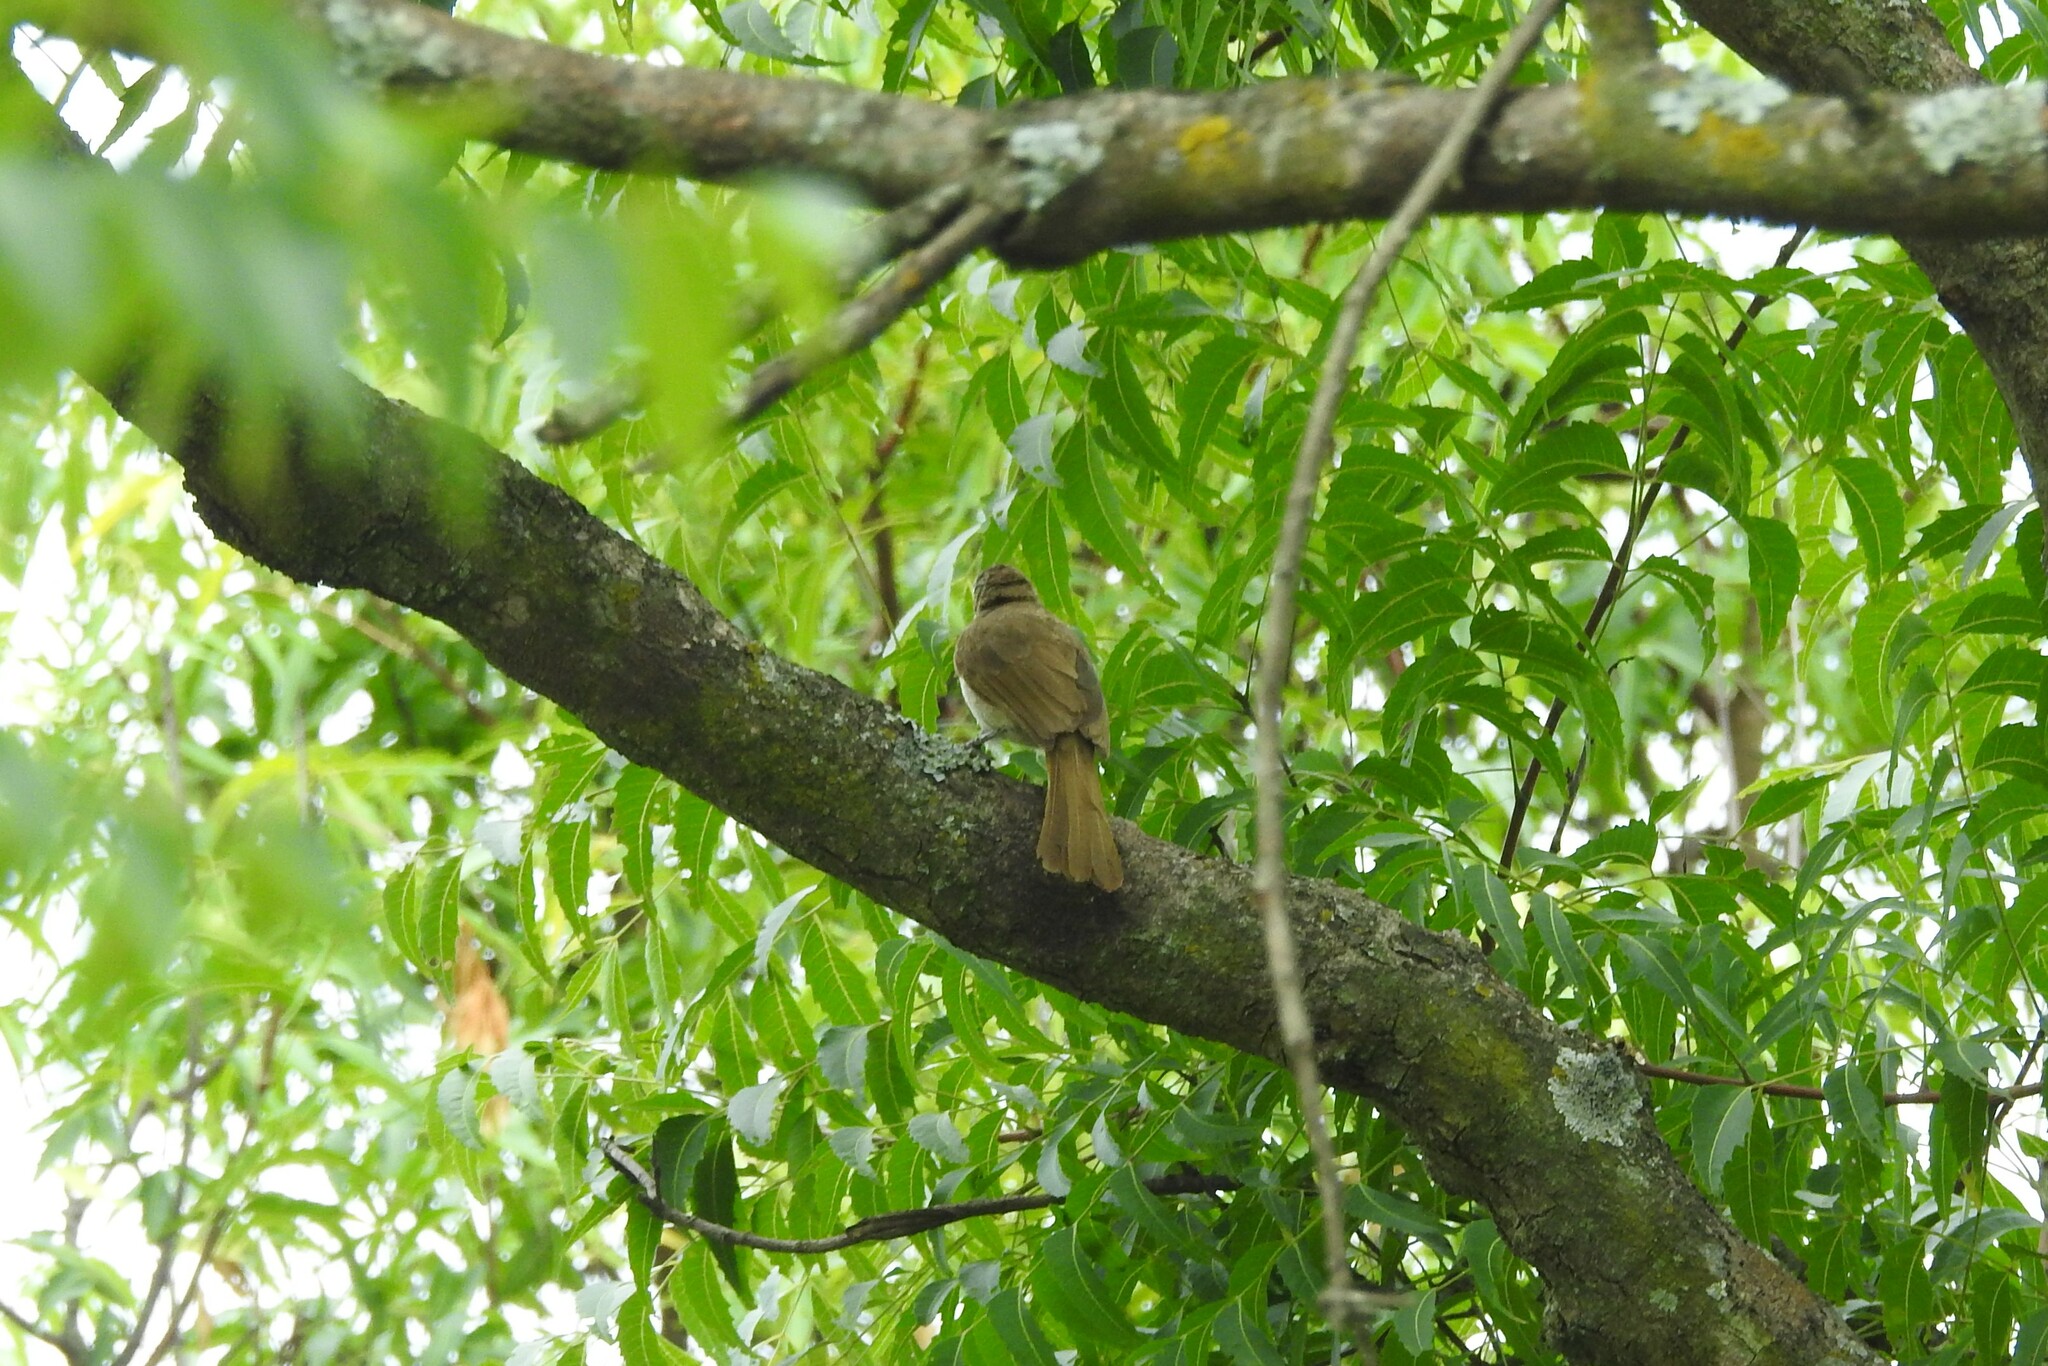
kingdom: Animalia
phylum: Chordata
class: Aves
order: Passeriformes
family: Pycnonotidae
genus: Pycnonotus
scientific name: Pycnonotus luteolus
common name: White-browed bulbul
